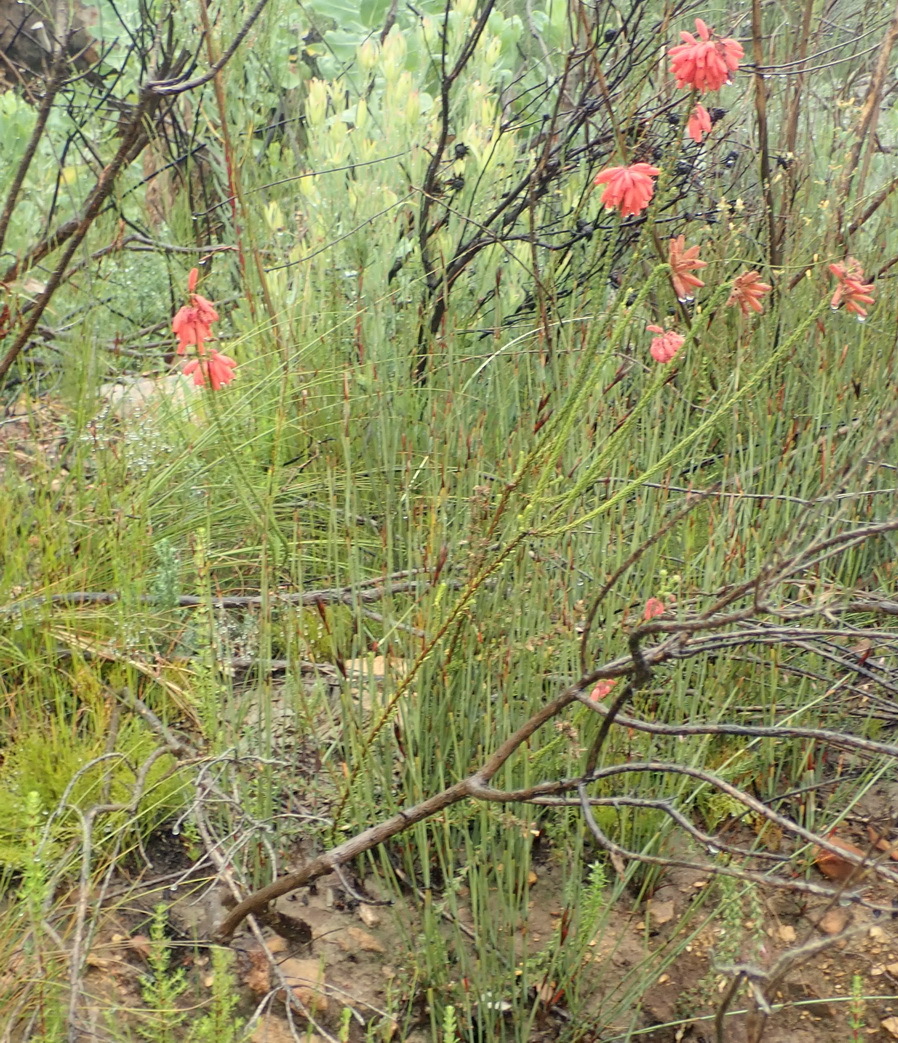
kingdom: Plantae
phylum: Tracheophyta
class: Magnoliopsida
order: Ericales
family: Ericaceae
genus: Erica
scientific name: Erica cerinthoides
